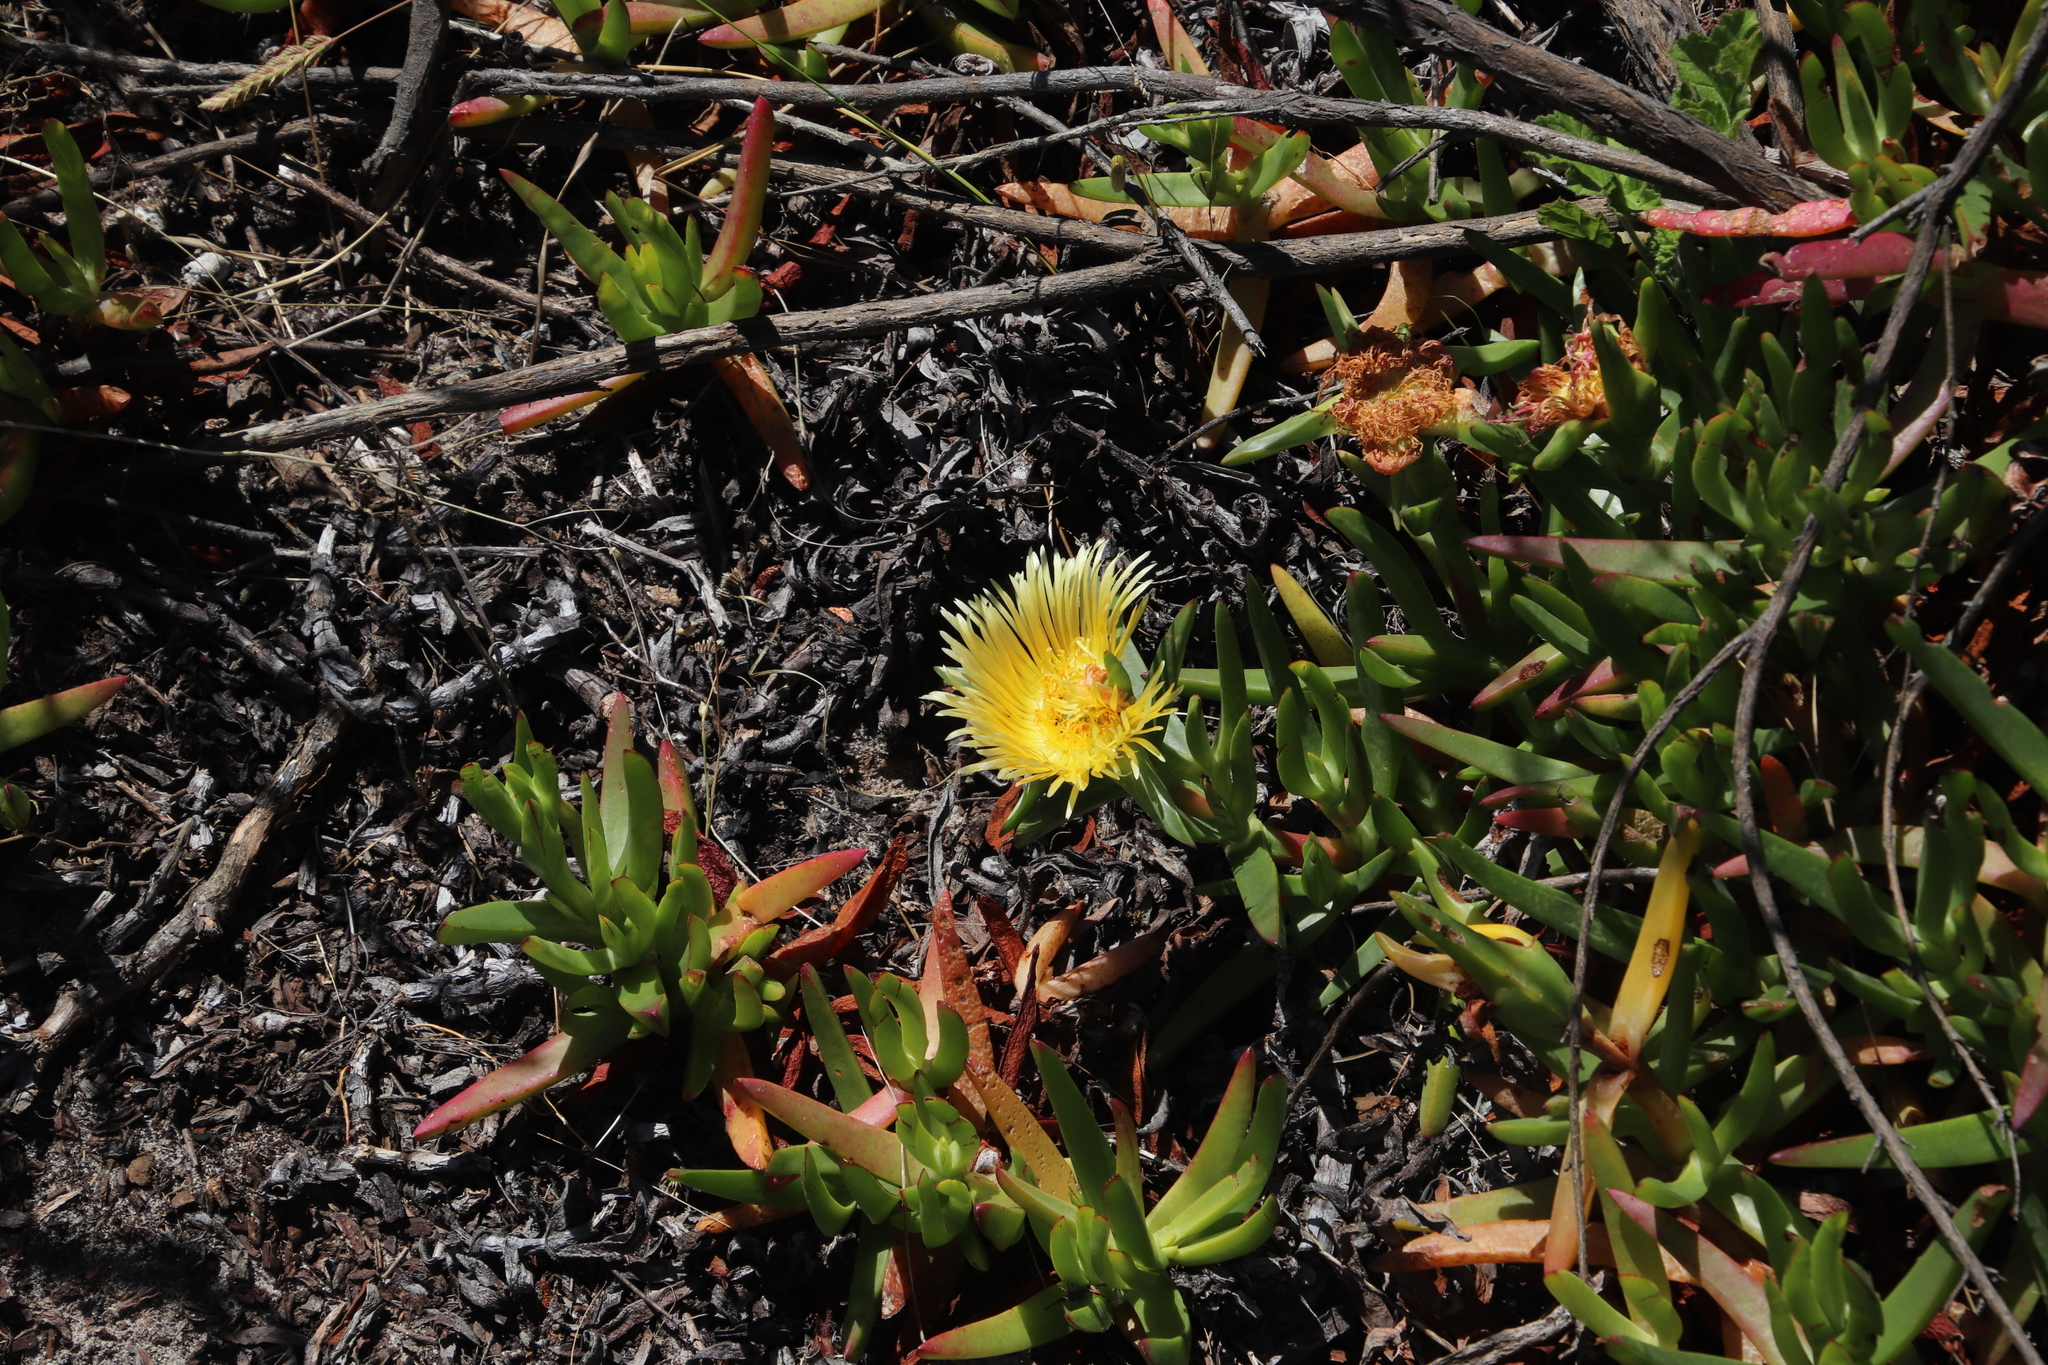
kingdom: Plantae
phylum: Tracheophyta
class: Magnoliopsida
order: Caryophyllales
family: Aizoaceae
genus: Carpobrotus
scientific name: Carpobrotus edulis
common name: Hottentot-fig
